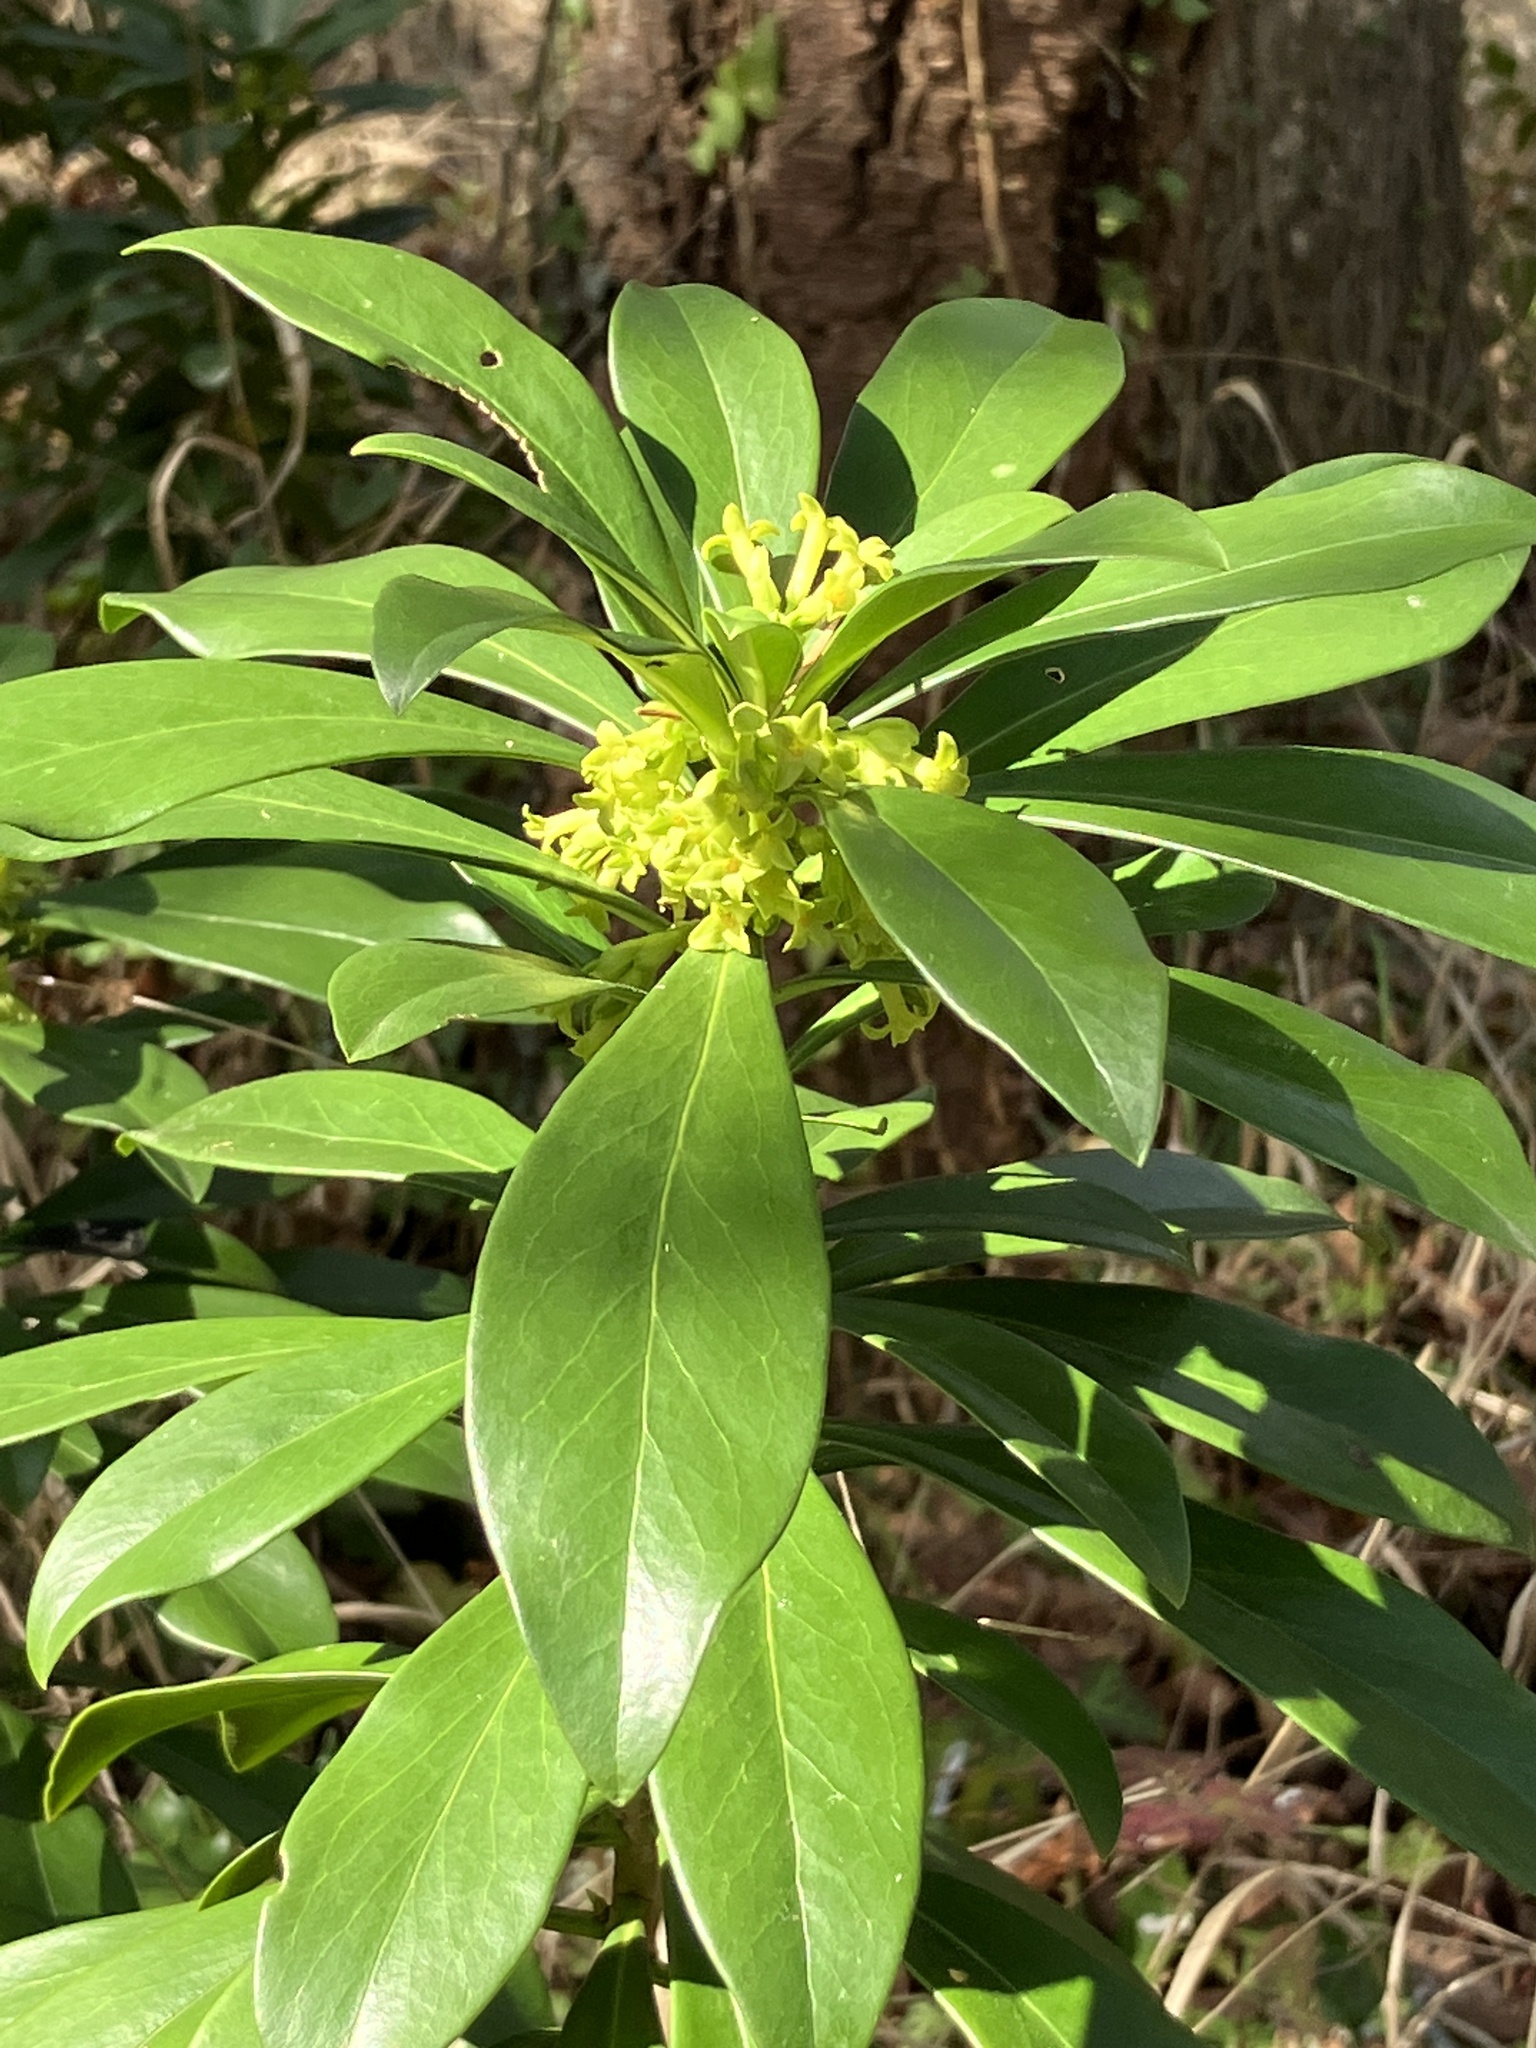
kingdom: Plantae
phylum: Tracheophyta
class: Magnoliopsida
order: Malvales
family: Thymelaeaceae
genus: Daphne
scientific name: Daphne laureola
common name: Spurge-laurel
